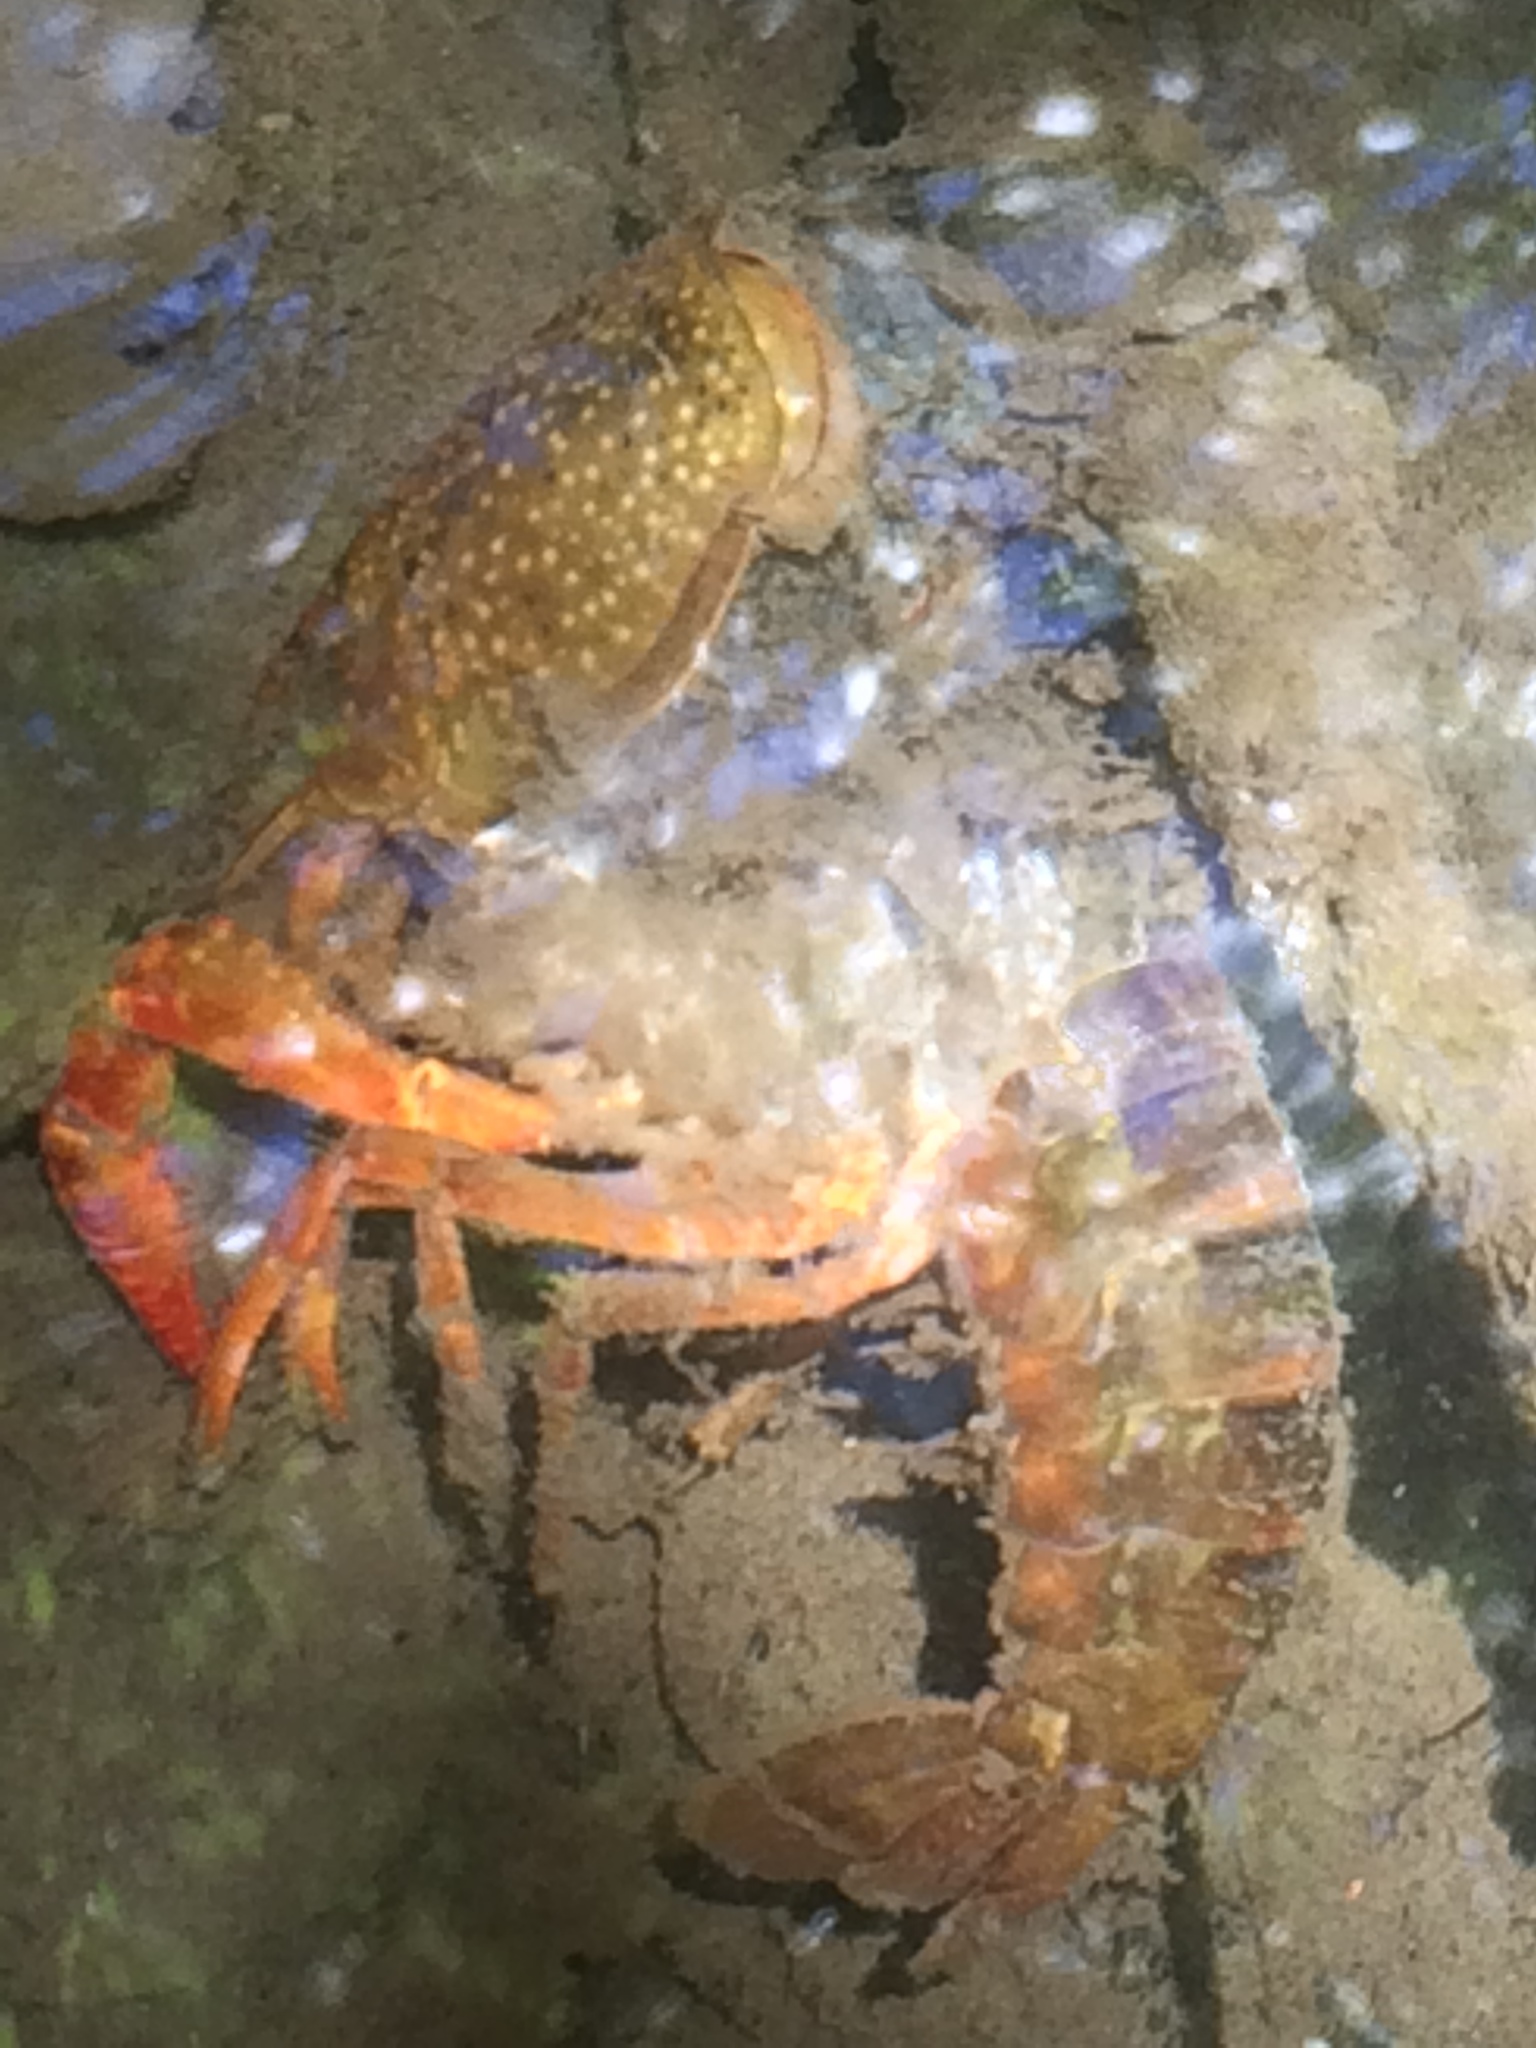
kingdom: Animalia
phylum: Arthropoda
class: Malacostraca
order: Decapoda
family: Cambaridae
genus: Procambarus
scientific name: Procambarus clarkii
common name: Red swamp crayfish
